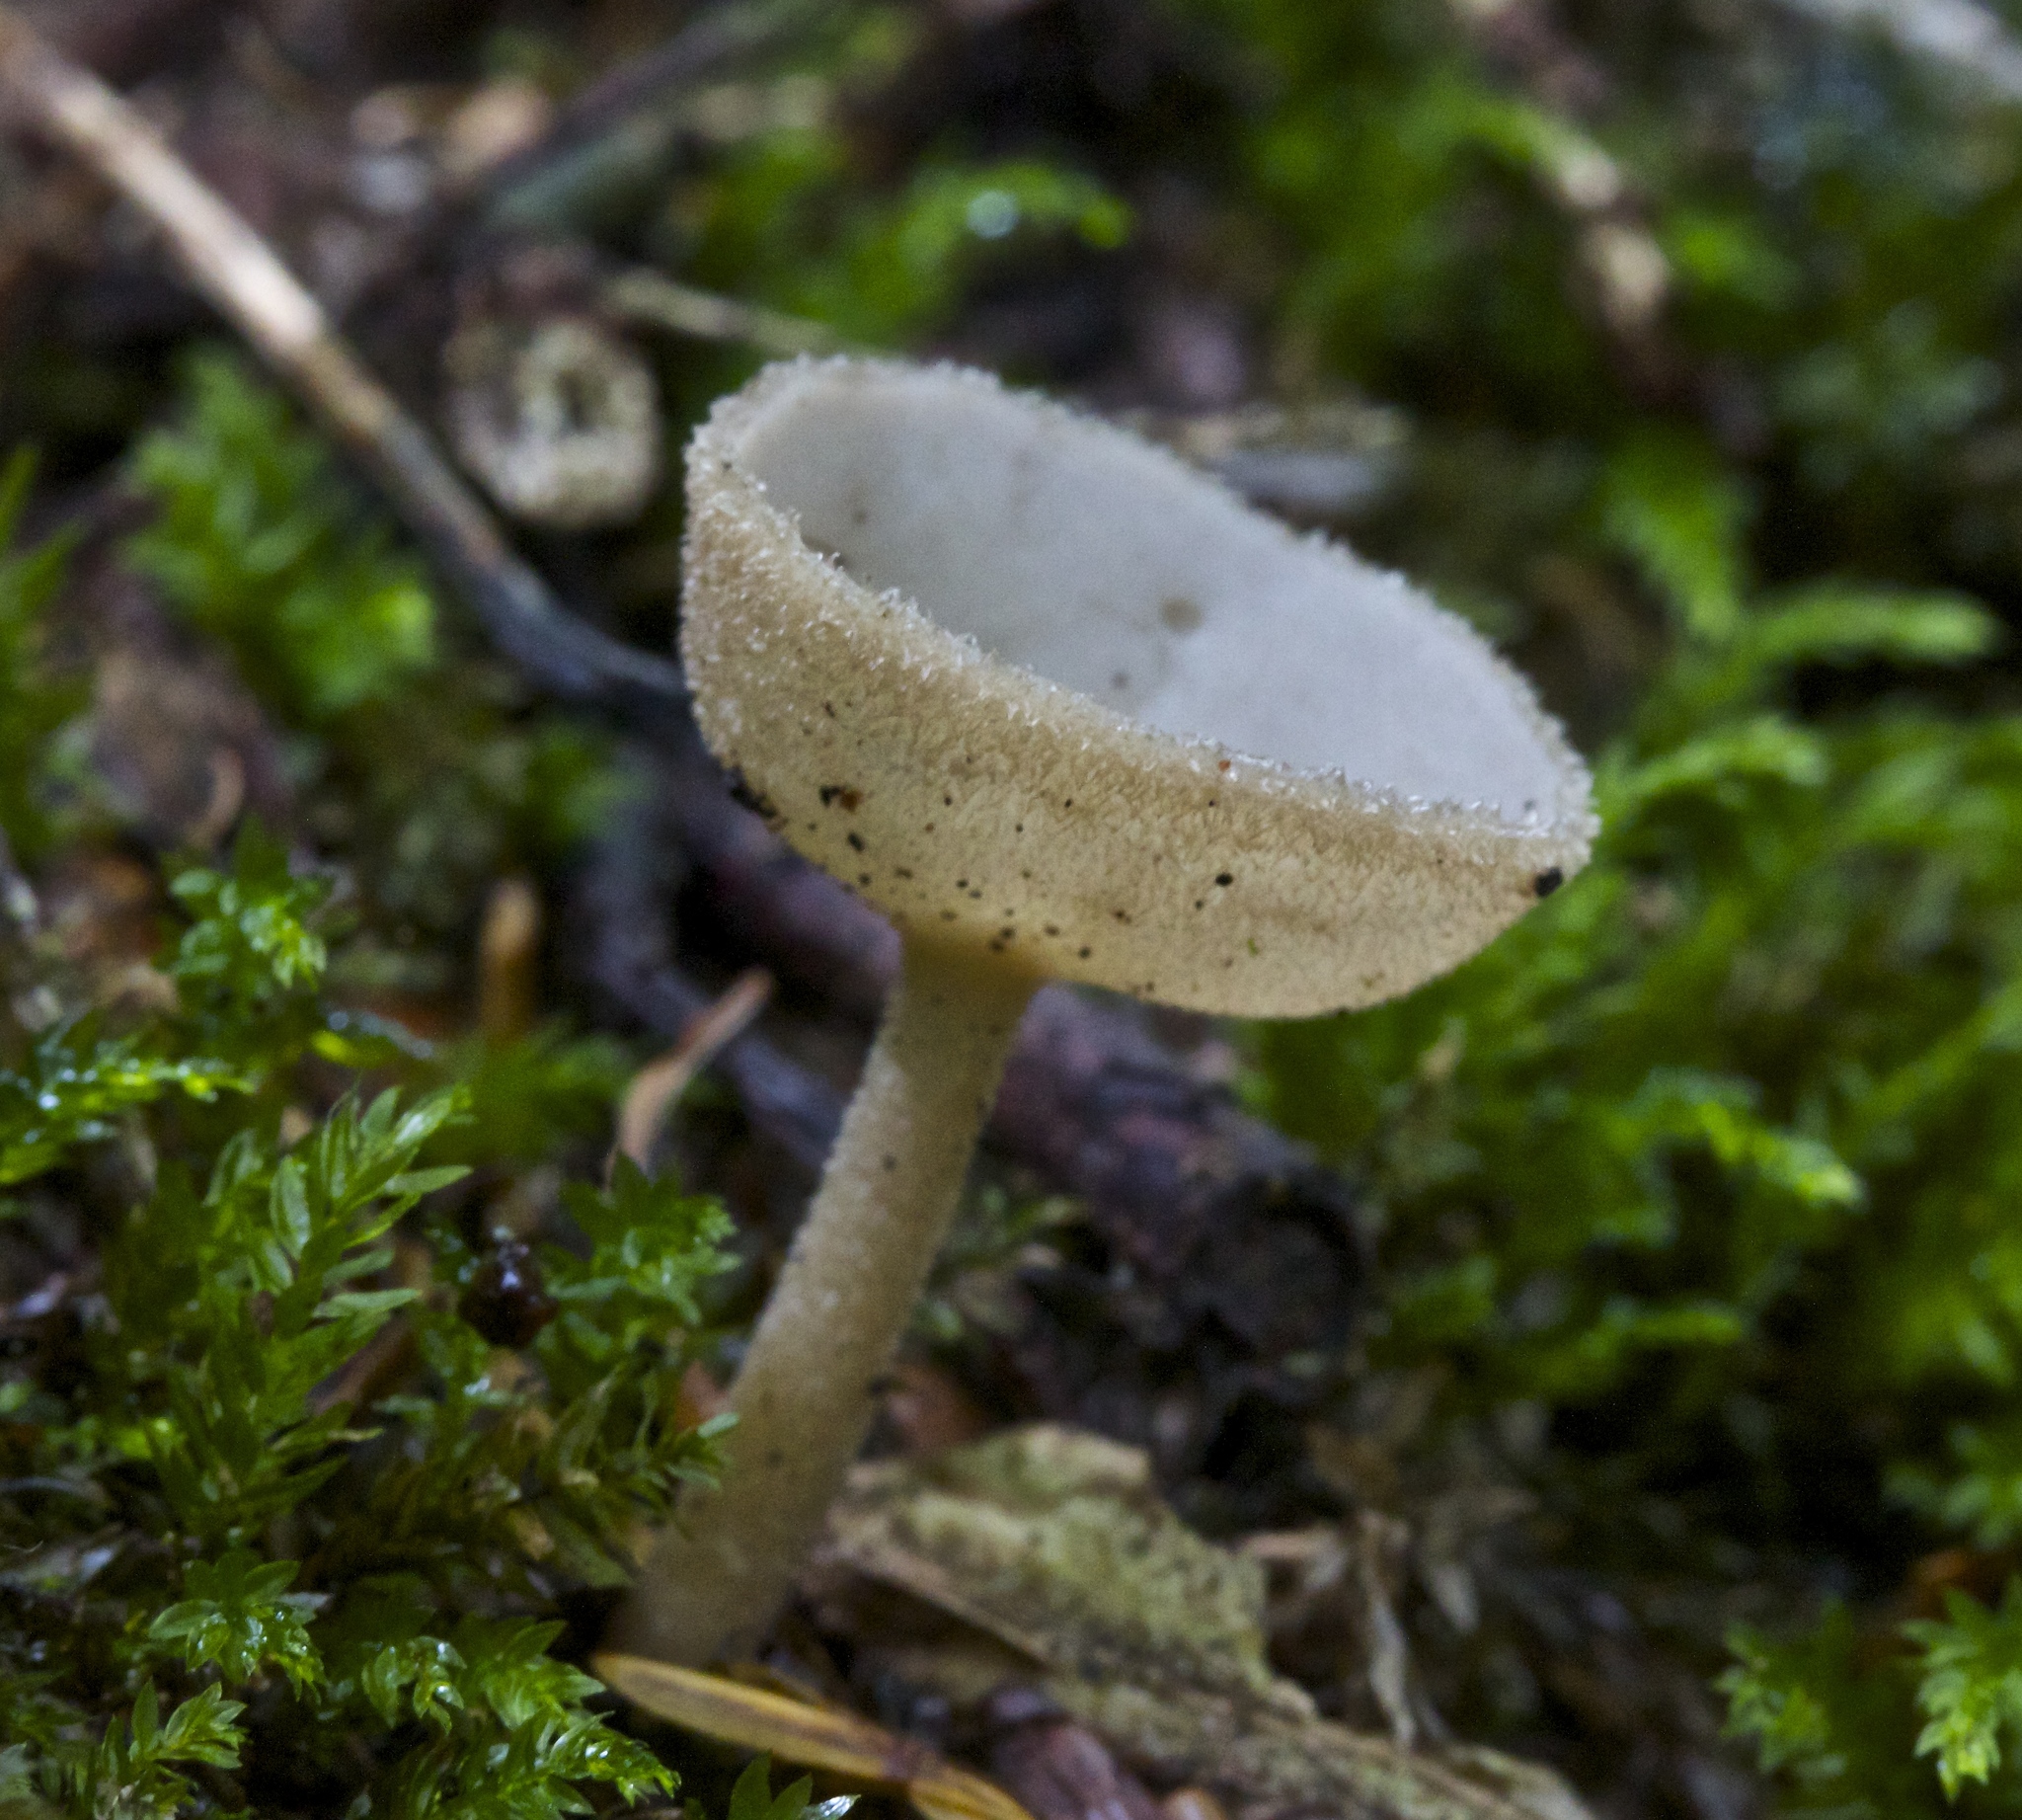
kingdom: Fungi
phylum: Ascomycota
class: Pezizomycetes
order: Pezizales
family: Helvellaceae
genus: Helvella
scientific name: Helvella macropus
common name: Felt saddle
